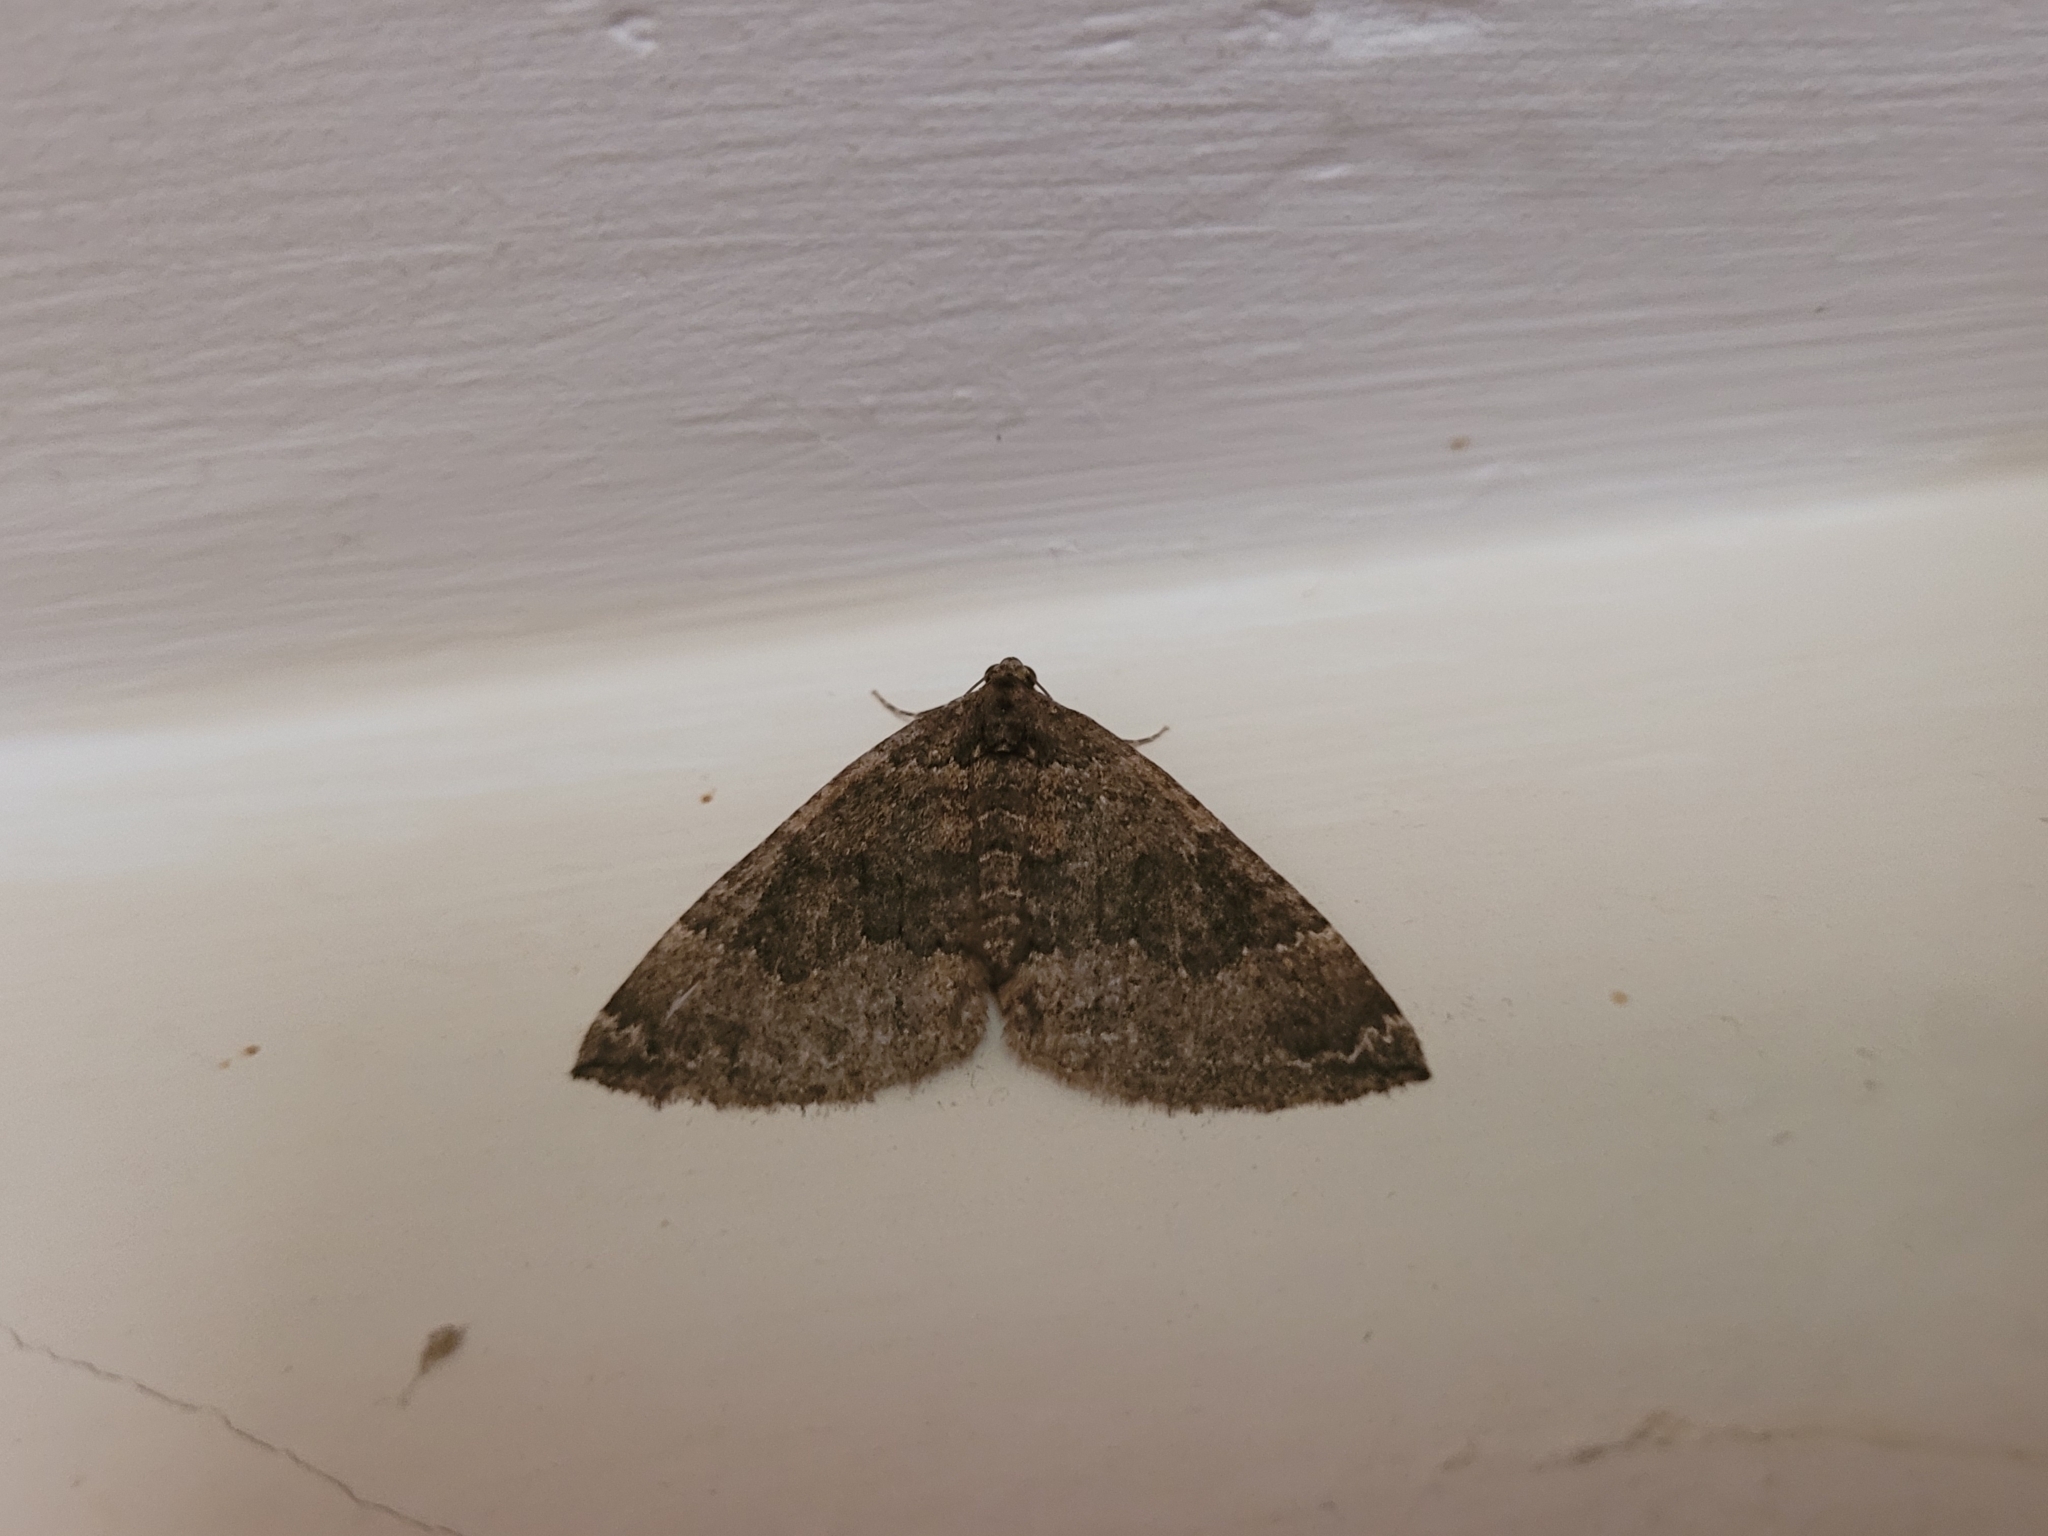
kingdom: Animalia
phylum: Arthropoda
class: Insecta
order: Lepidoptera
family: Geometridae
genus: Nebula
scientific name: Nebula malvata
